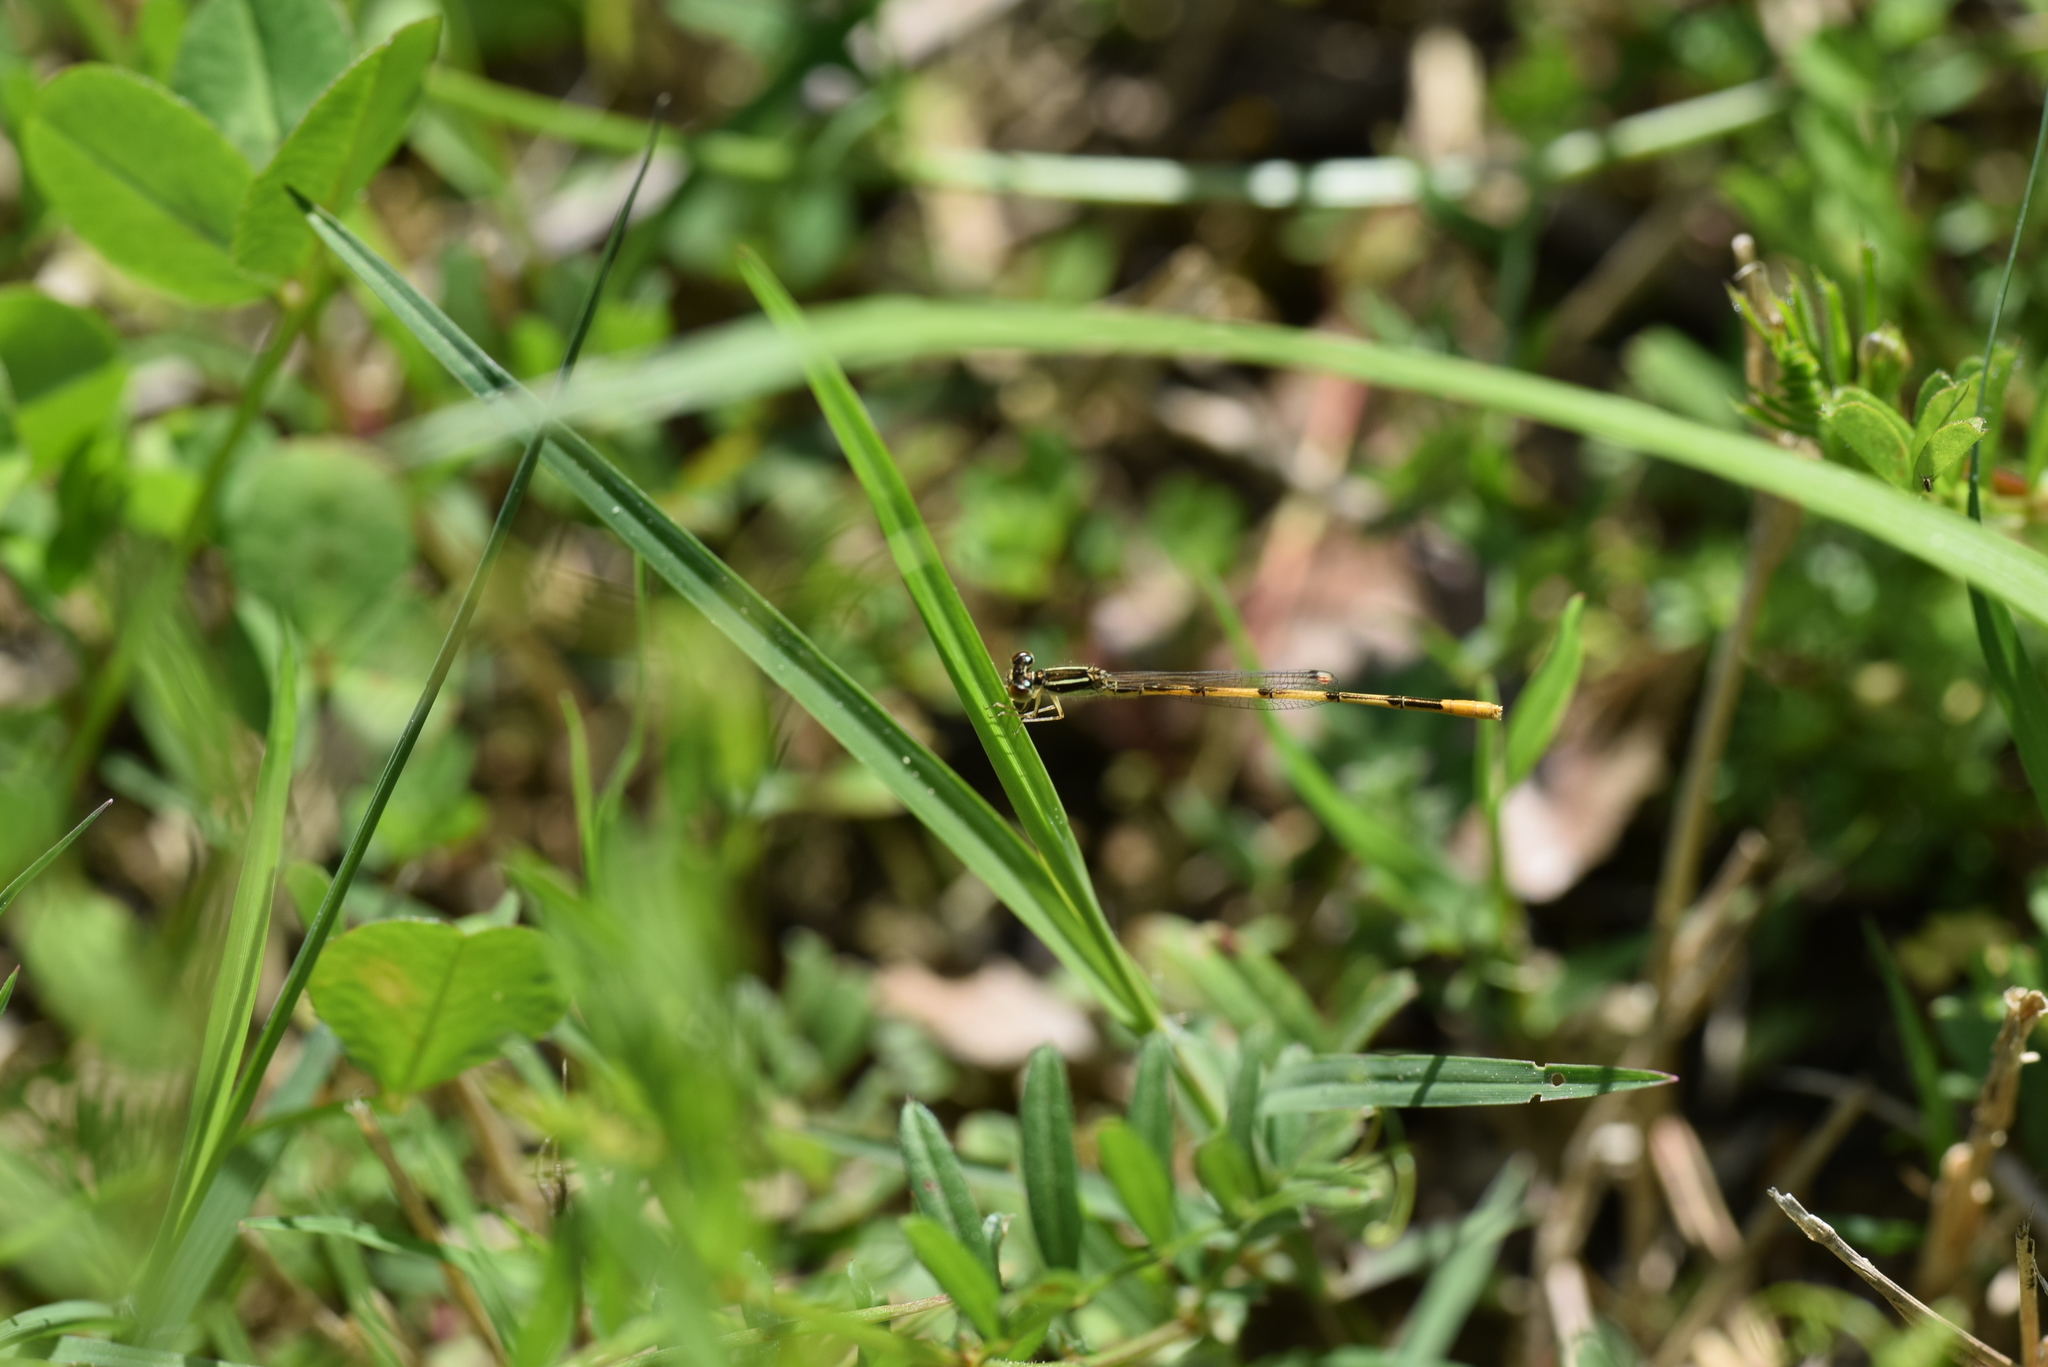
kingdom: Animalia
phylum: Arthropoda
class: Insecta
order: Odonata
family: Coenagrionidae
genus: Ischnura
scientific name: Ischnura hastata
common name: Citrine forktail
